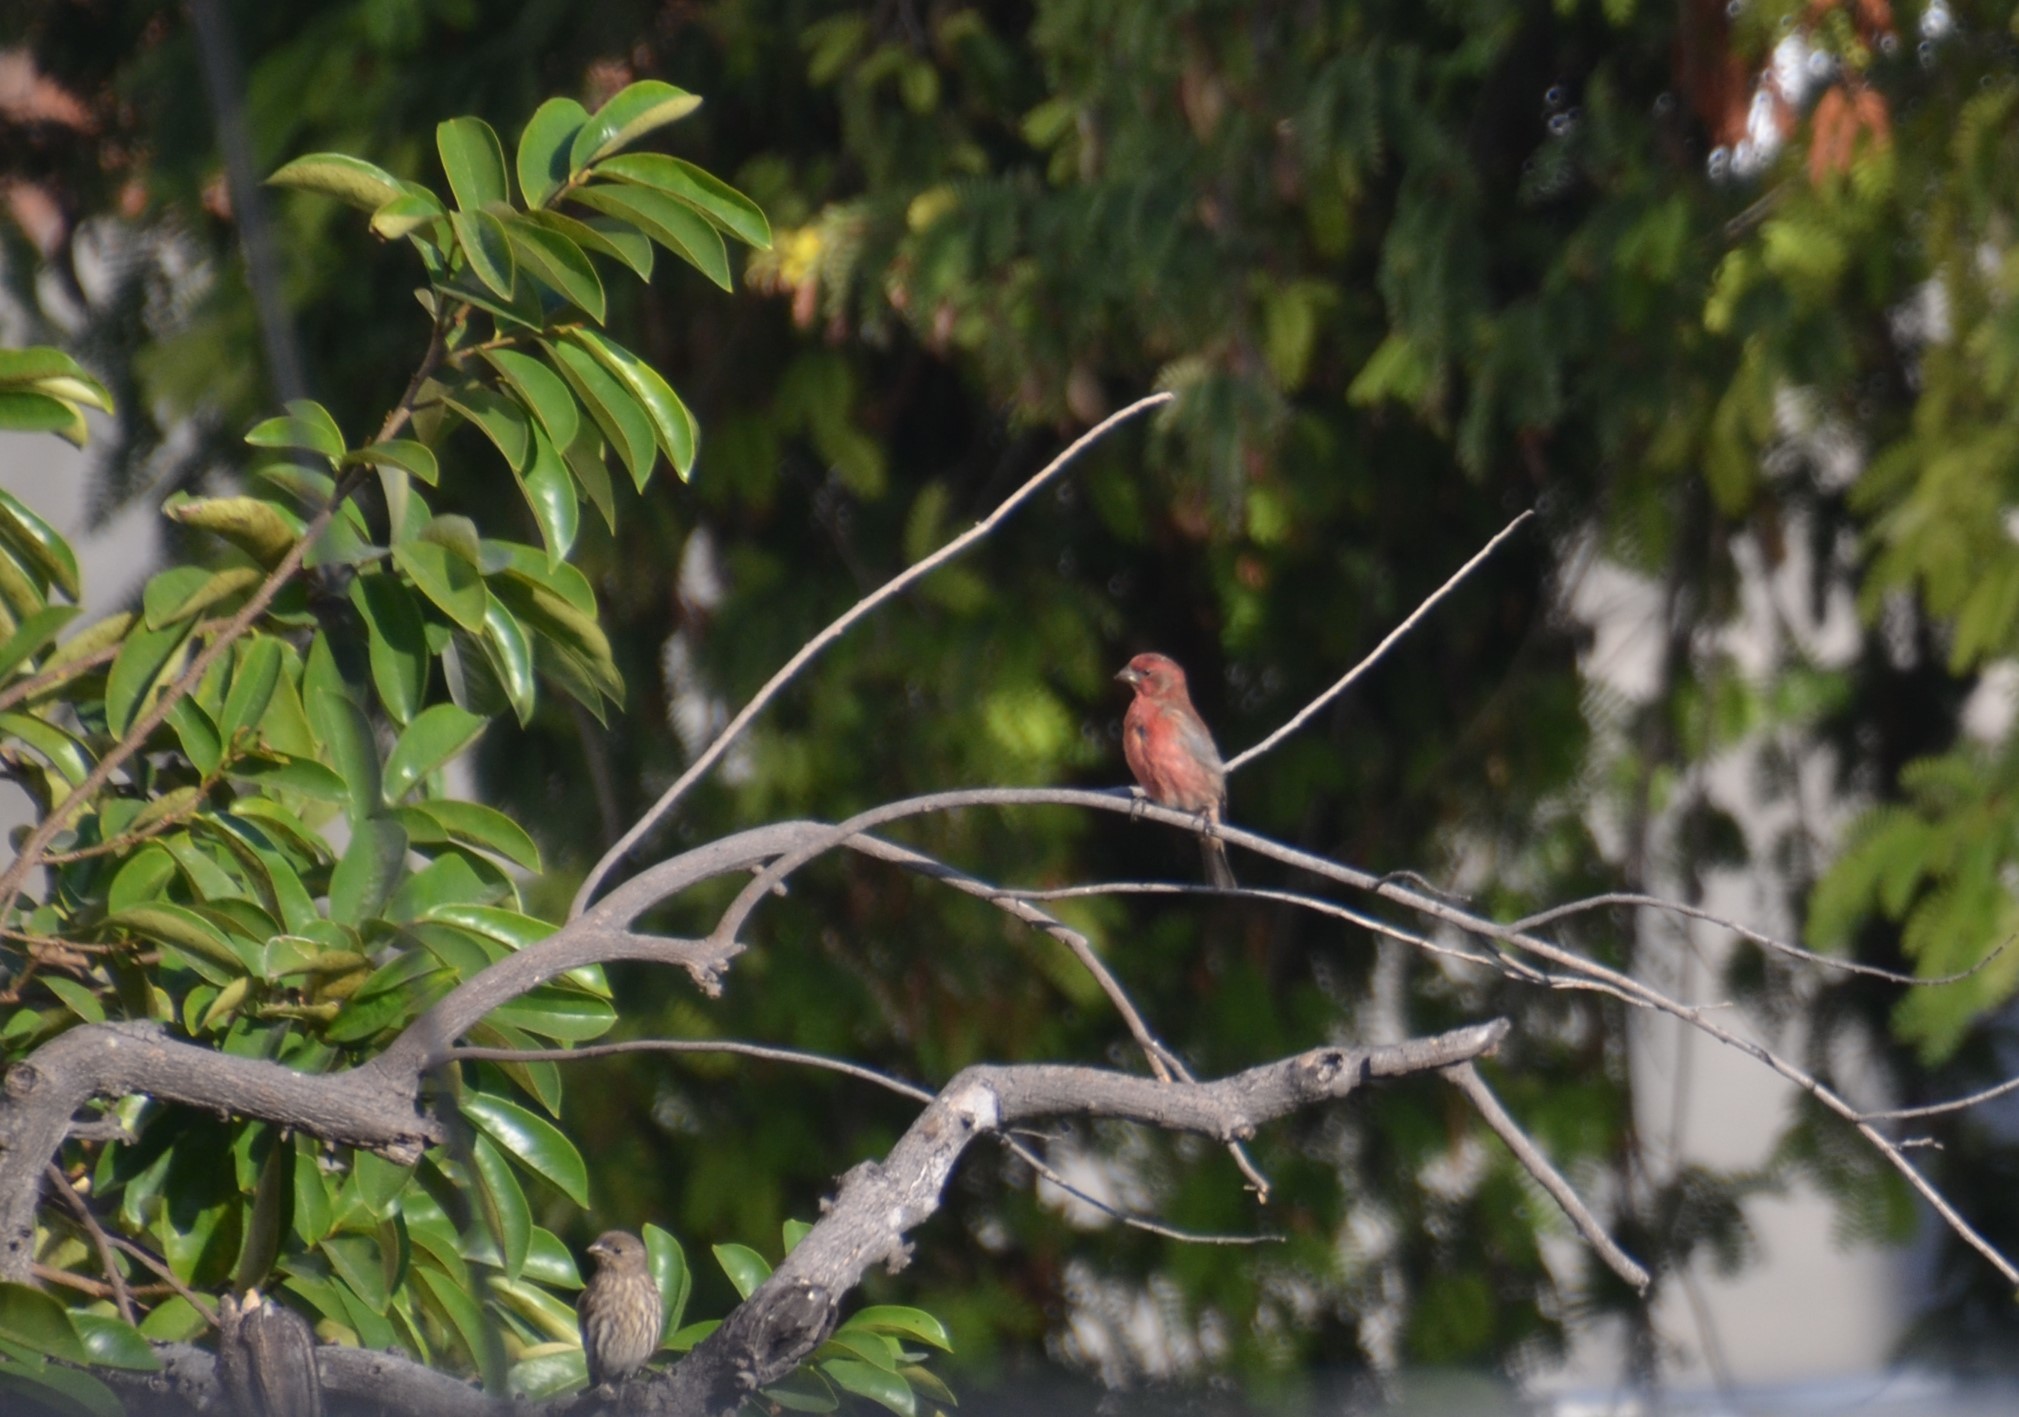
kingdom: Animalia
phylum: Chordata
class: Aves
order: Passeriformes
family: Fringillidae
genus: Haemorhous
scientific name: Haemorhous mexicanus
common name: House finch
